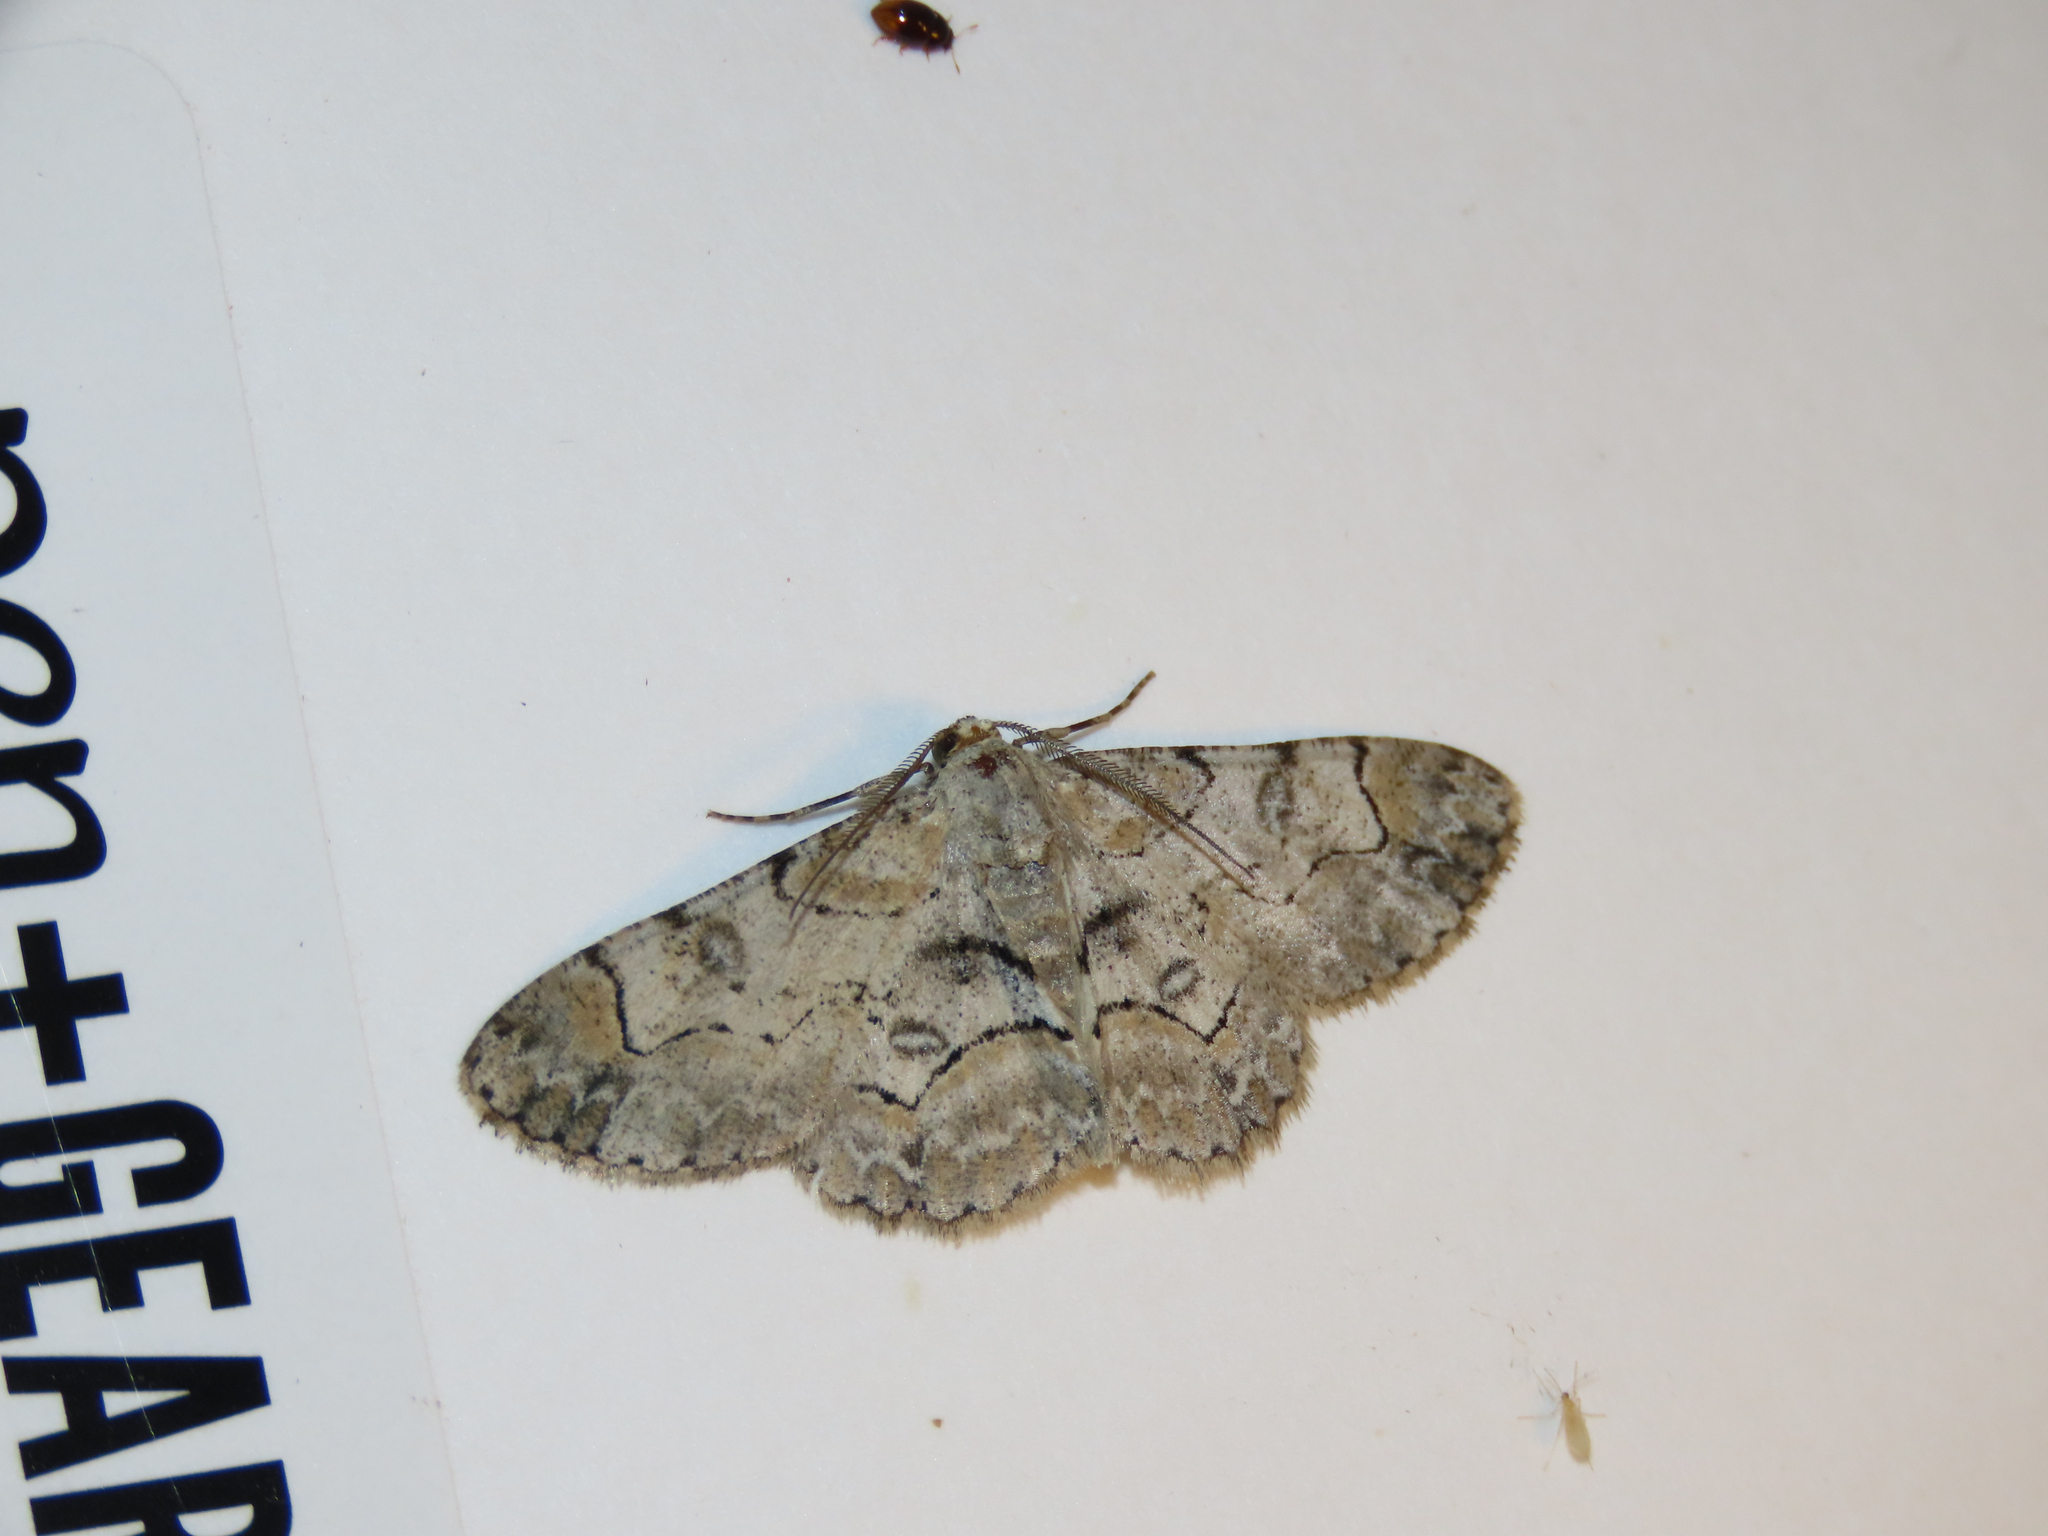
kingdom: Animalia
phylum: Arthropoda
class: Insecta
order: Lepidoptera
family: Geometridae
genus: Iridopsis
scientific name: Iridopsis larvaria
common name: Bent-line gray
